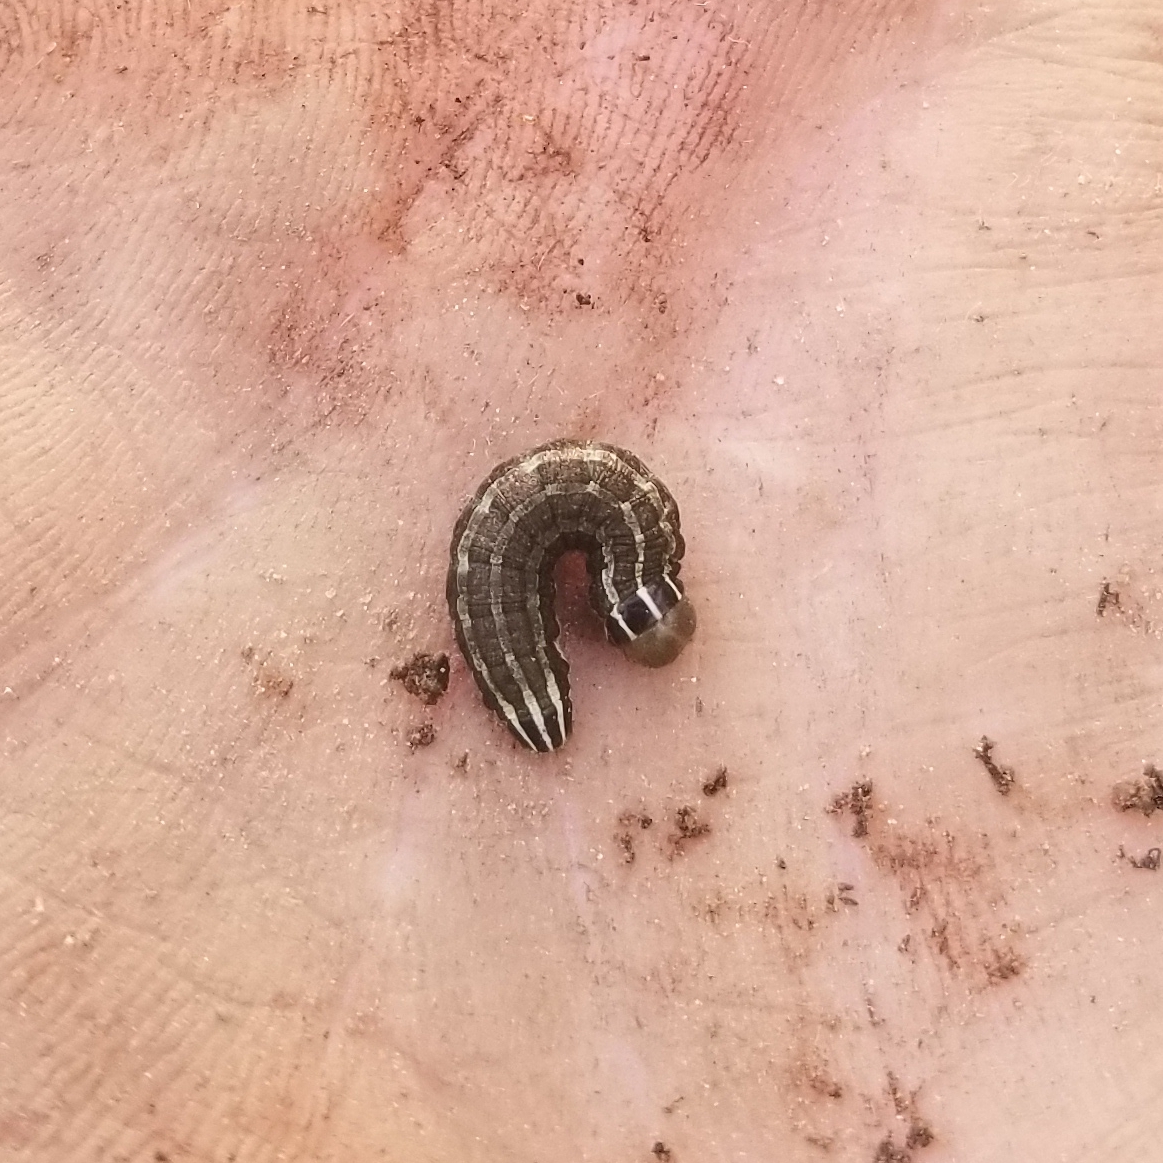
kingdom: Animalia
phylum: Arthropoda
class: Insecta
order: Lepidoptera
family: Noctuidae
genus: Nephelodes
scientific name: Nephelodes minians
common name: Bronzed cutworm
